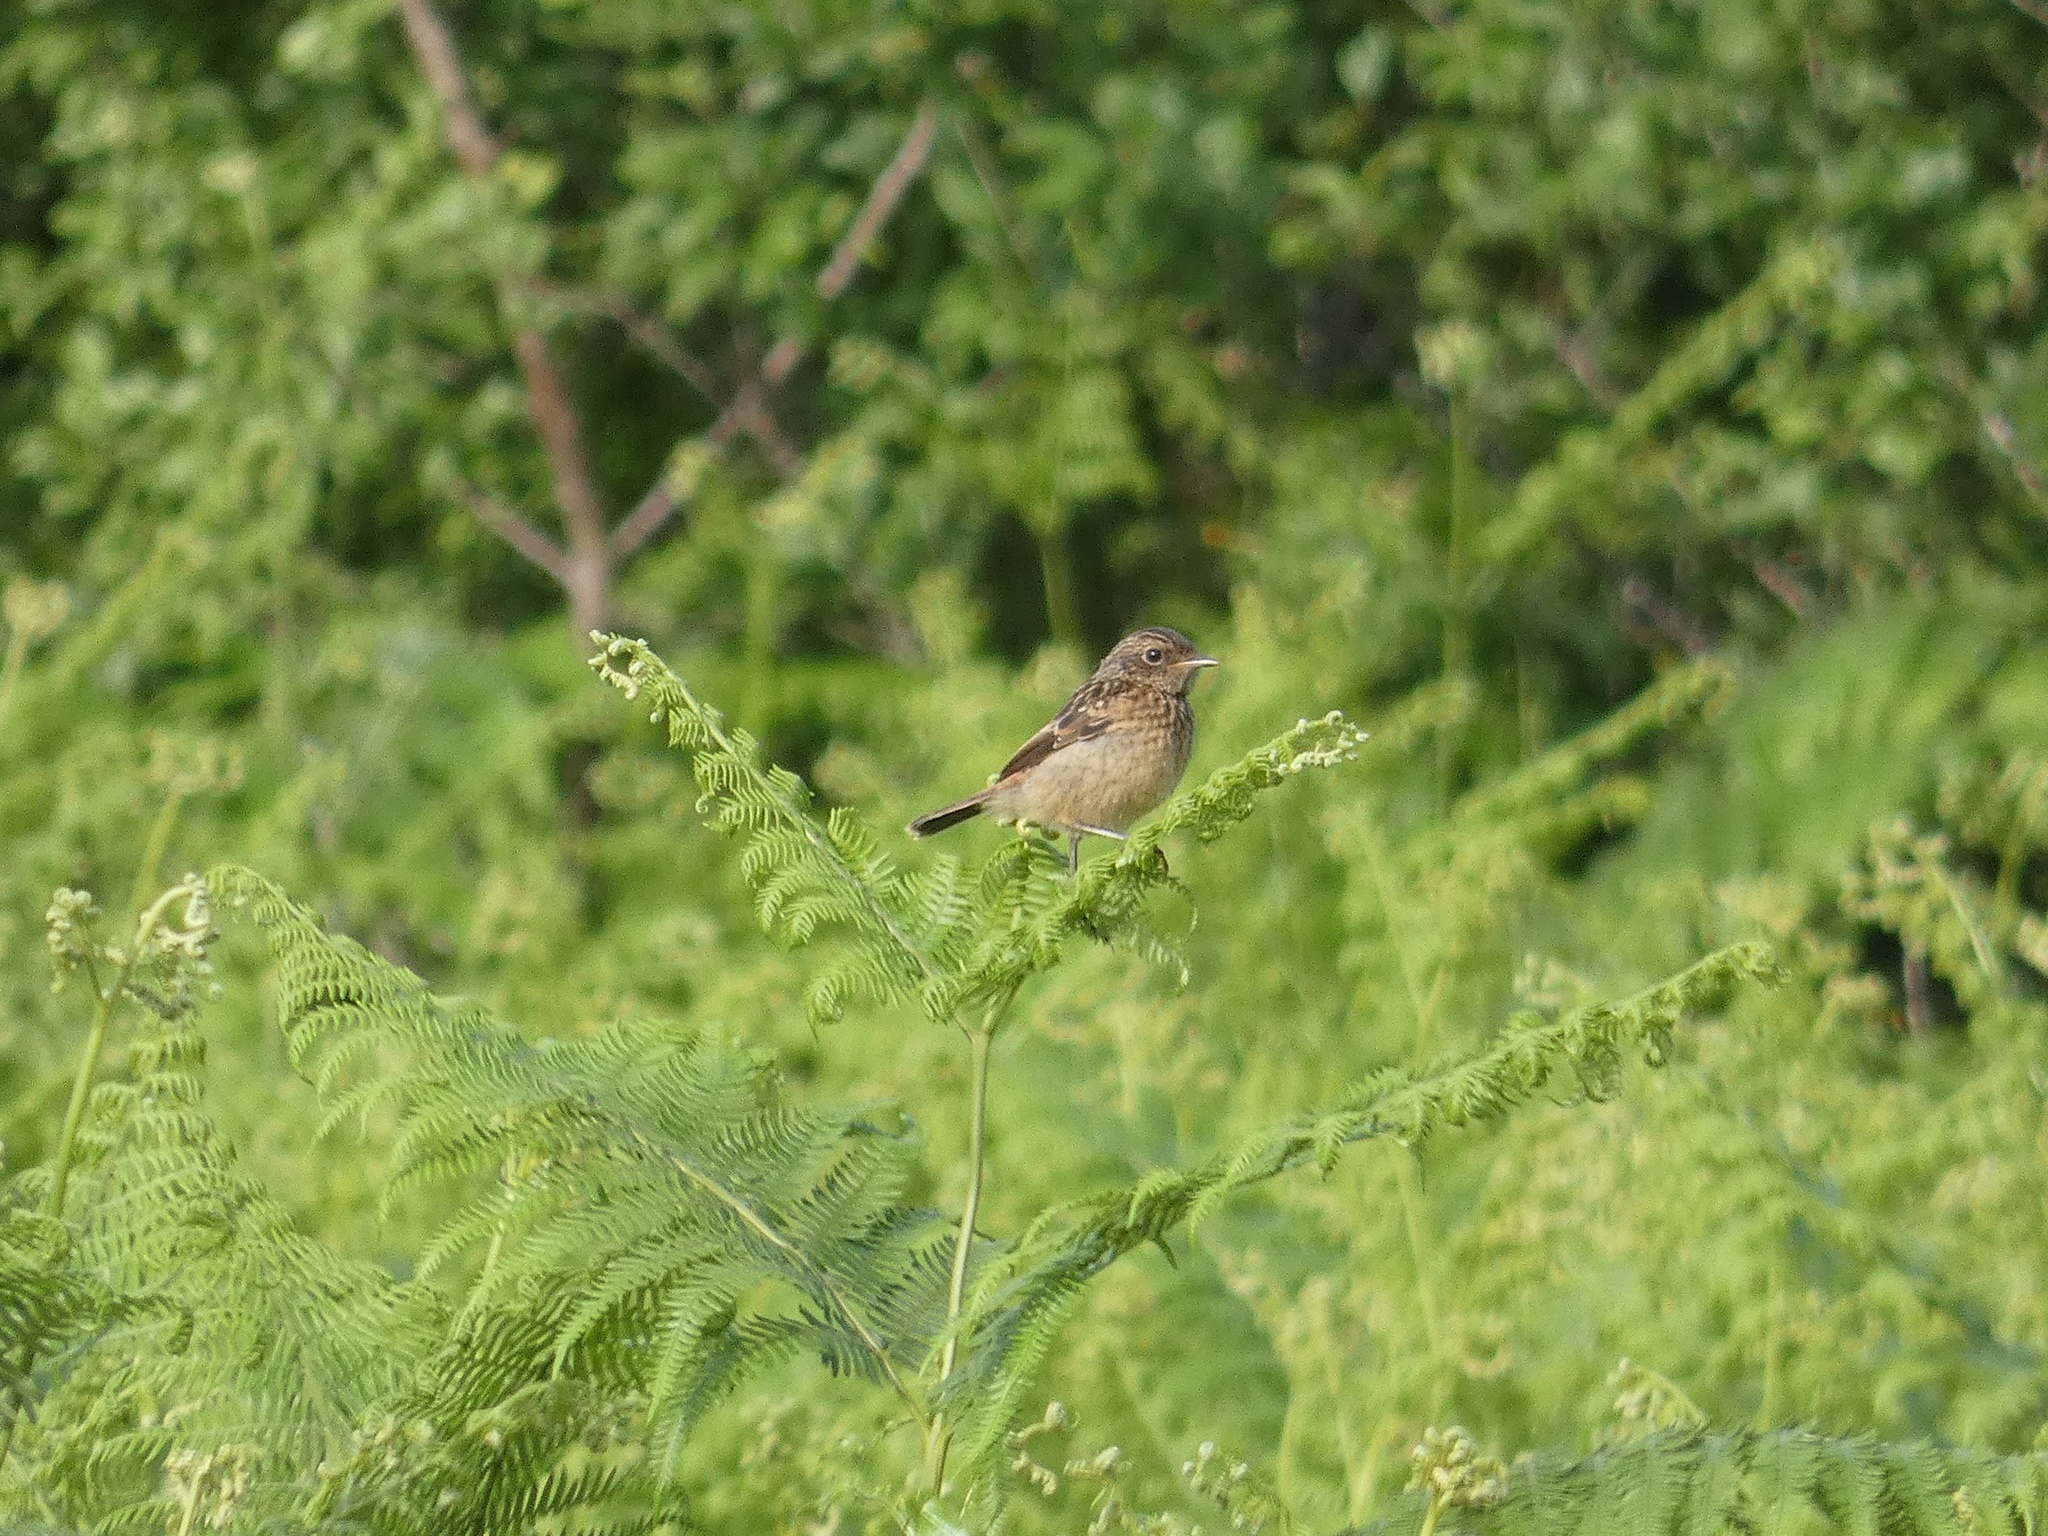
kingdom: Animalia
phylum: Chordata
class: Aves
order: Passeriformes
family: Muscicapidae
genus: Saxicola
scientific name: Saxicola rubicola
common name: European stonechat
